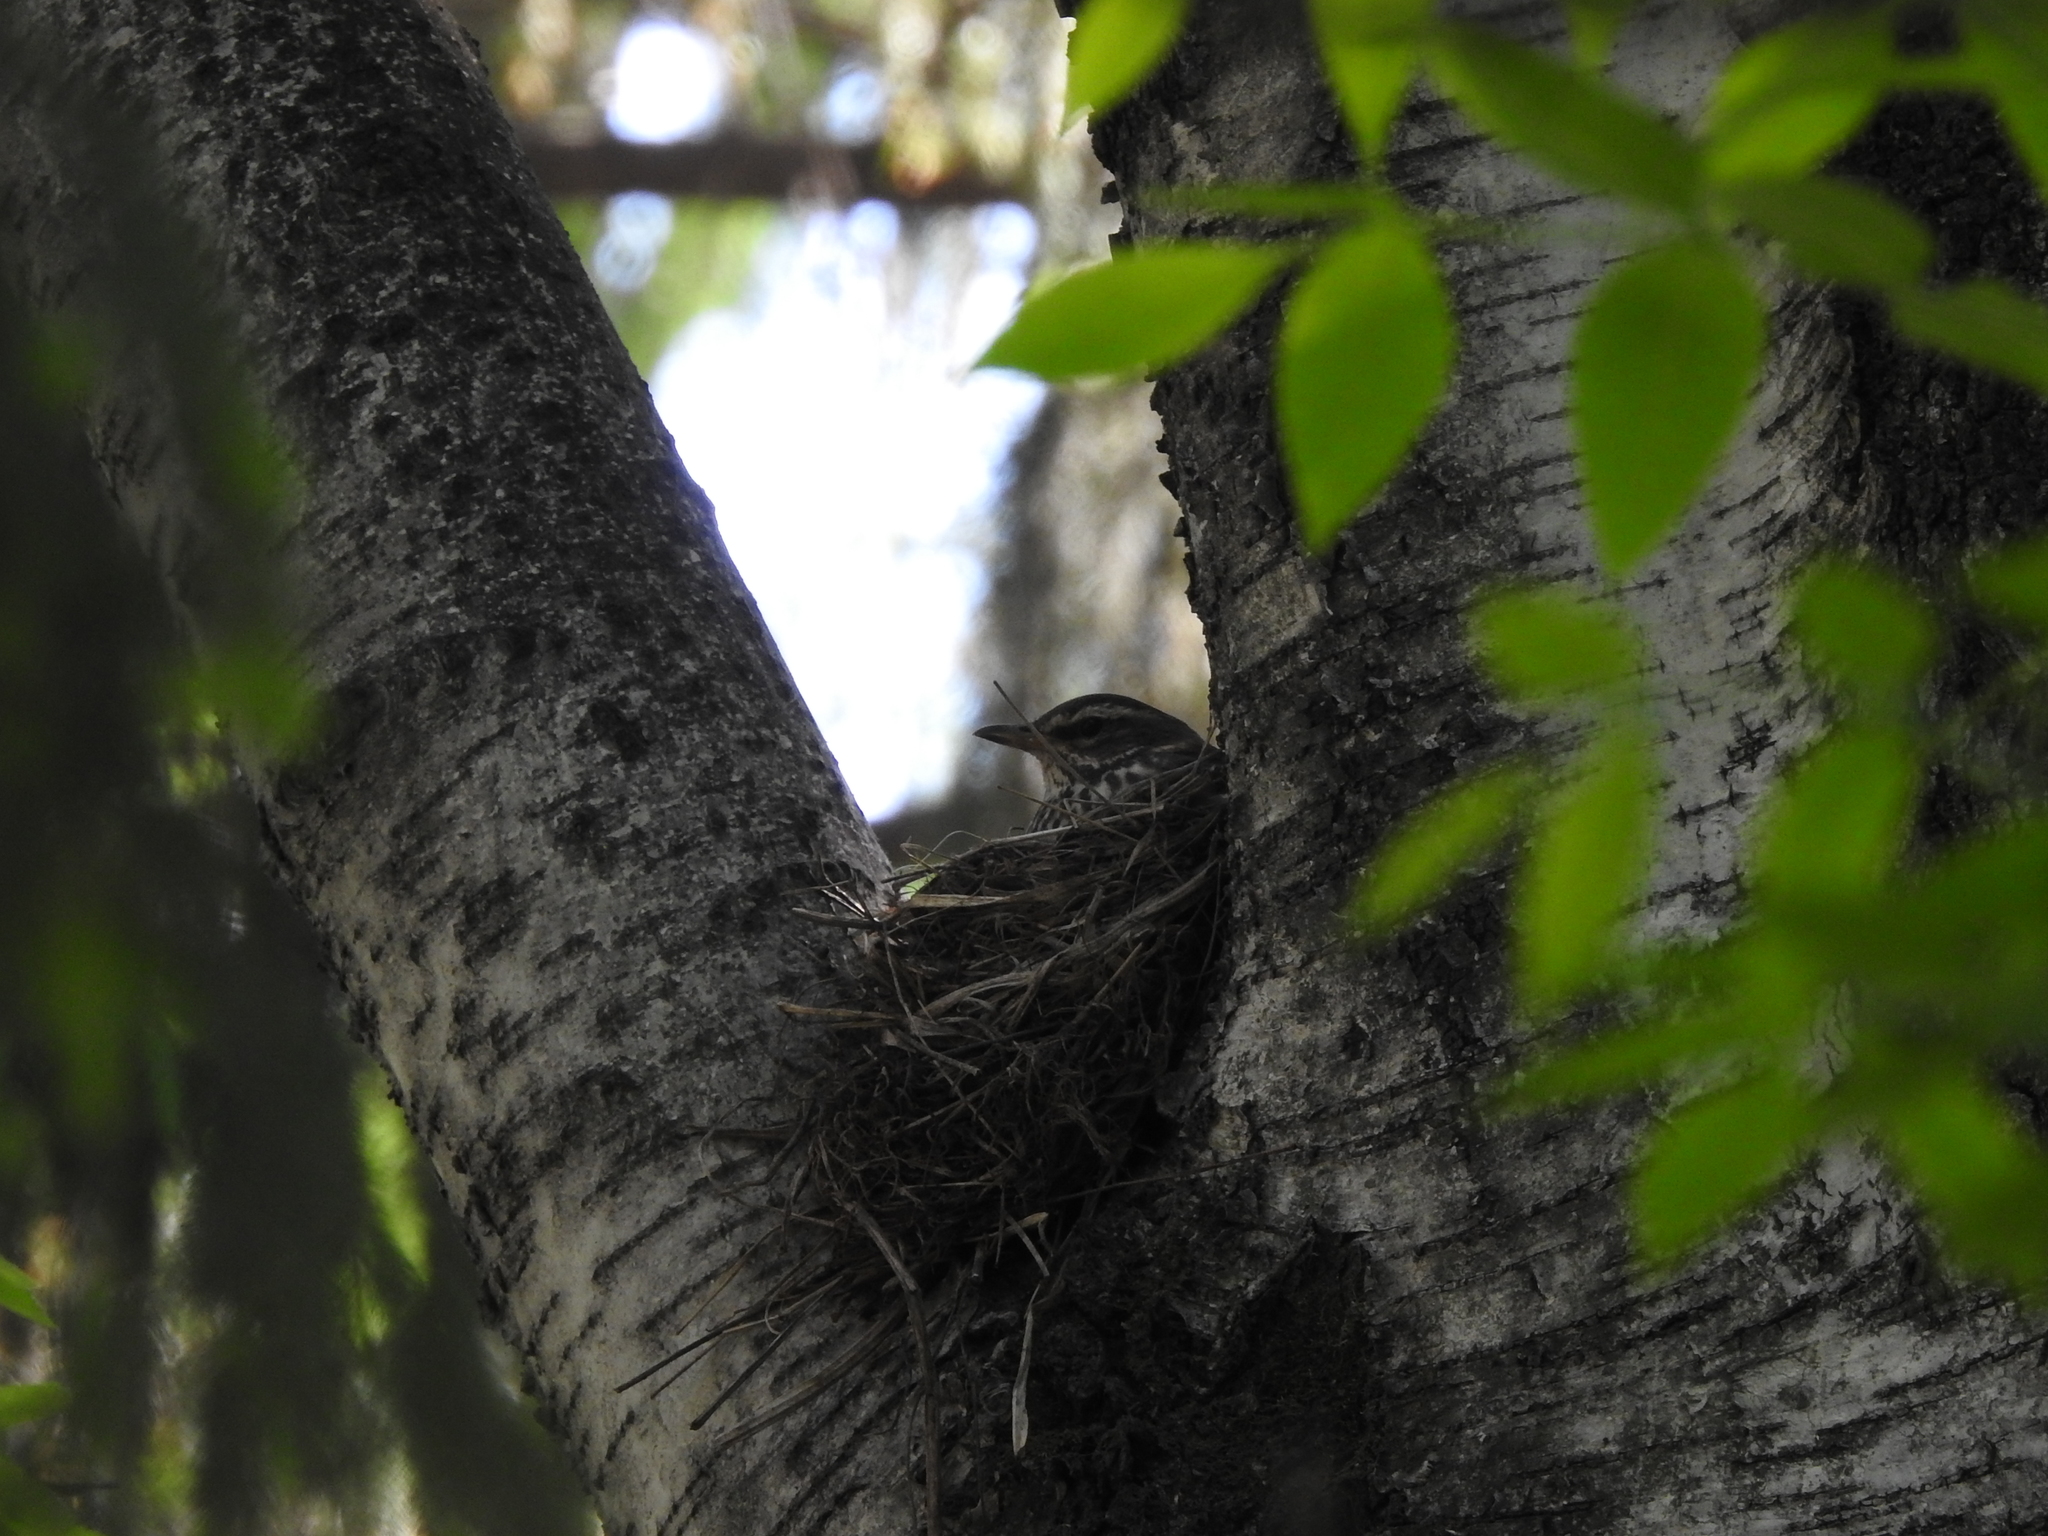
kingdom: Animalia
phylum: Chordata
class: Aves
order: Passeriformes
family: Turdidae
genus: Turdus
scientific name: Turdus iliacus
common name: Redwing
